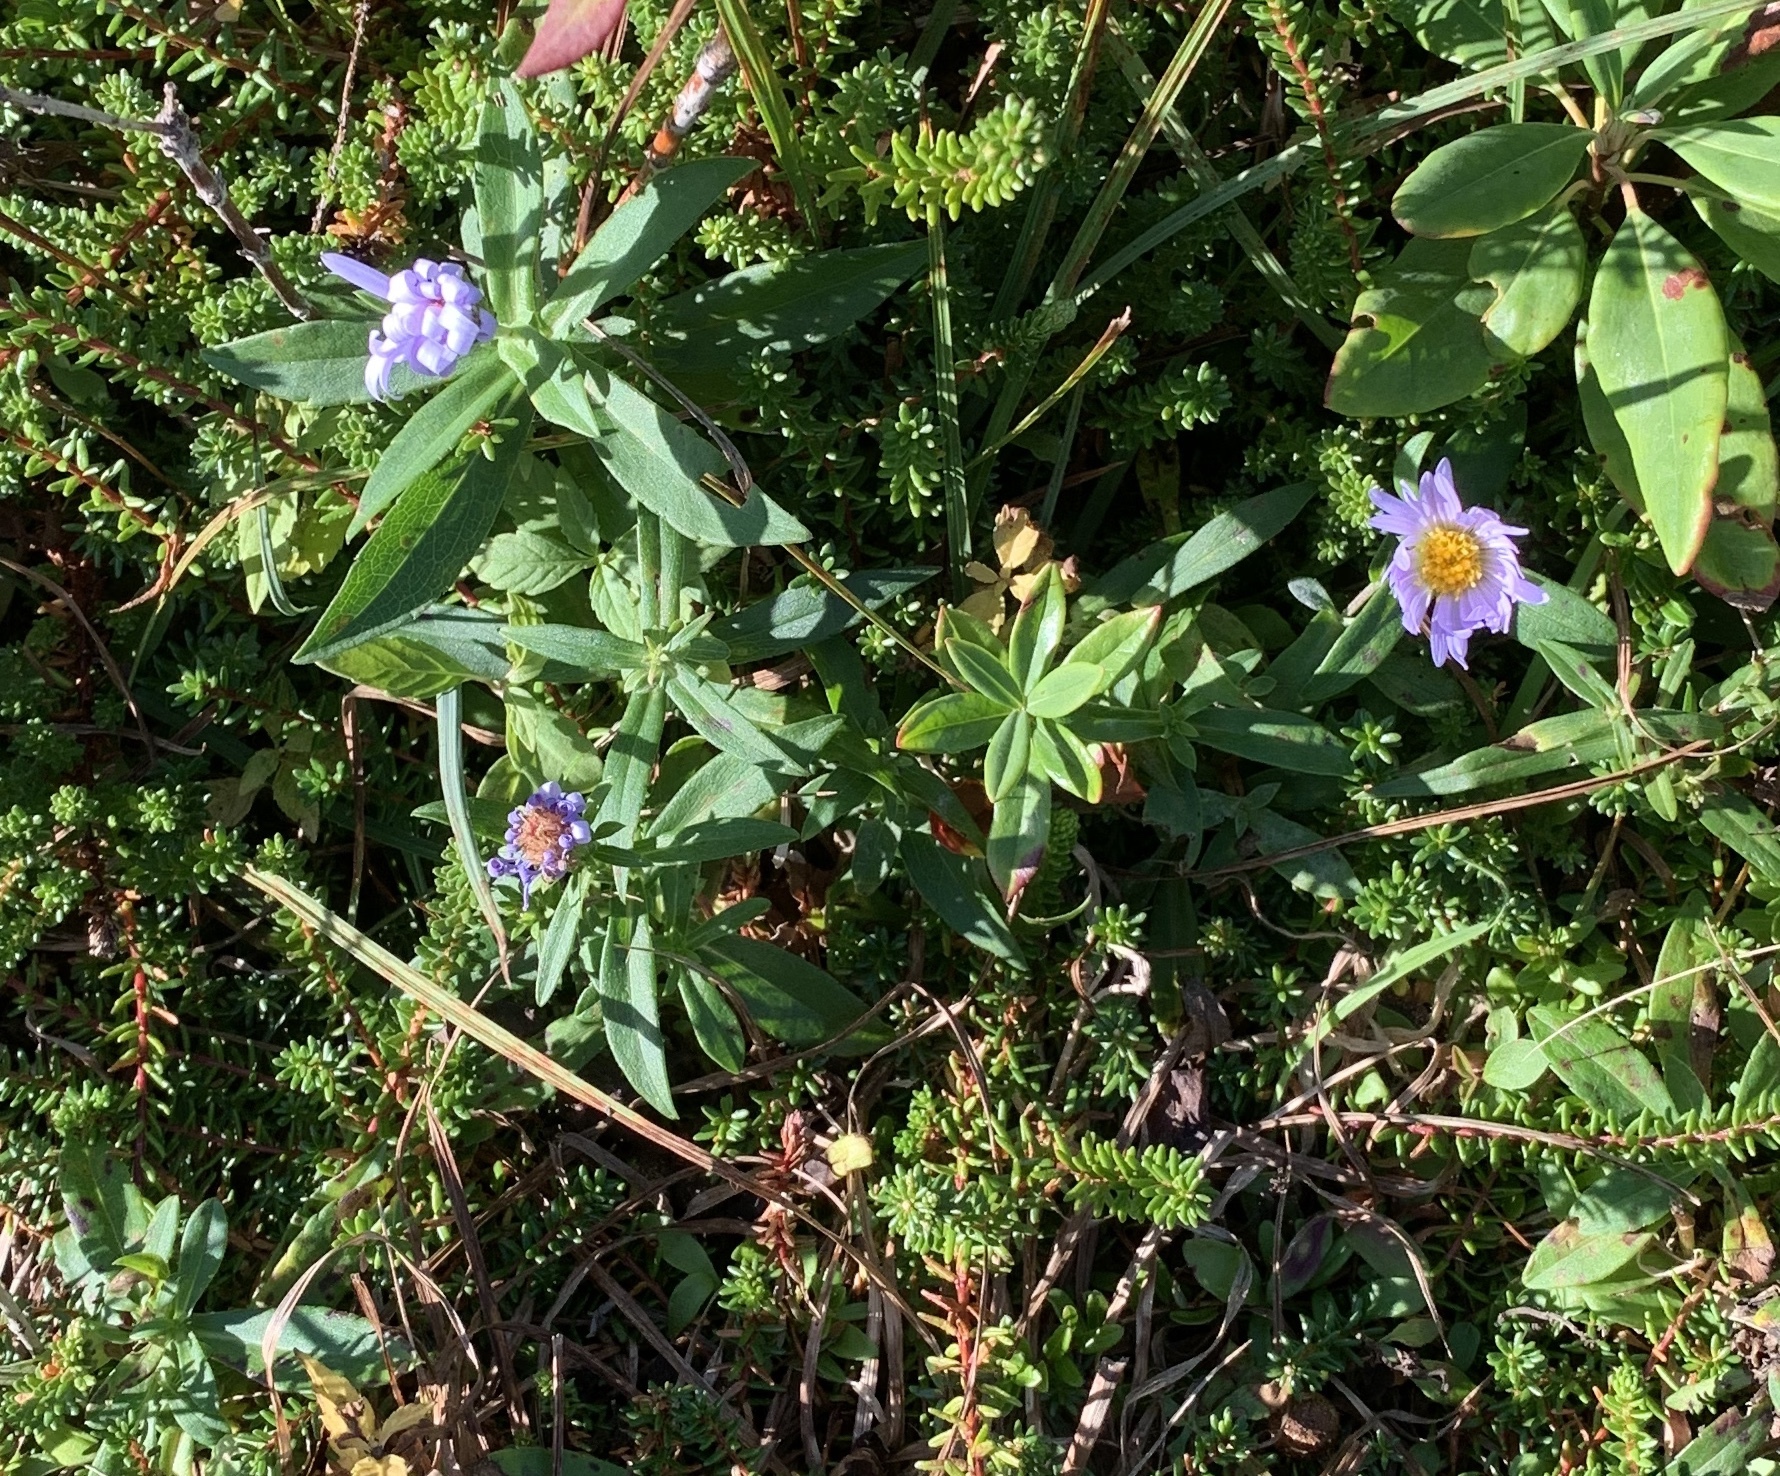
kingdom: Plantae
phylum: Tracheophyta
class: Magnoliopsida
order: Asterales
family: Asteraceae
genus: Symphyotrichum
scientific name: Symphyotrichum novi-belgii
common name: Michaelmas daisy
